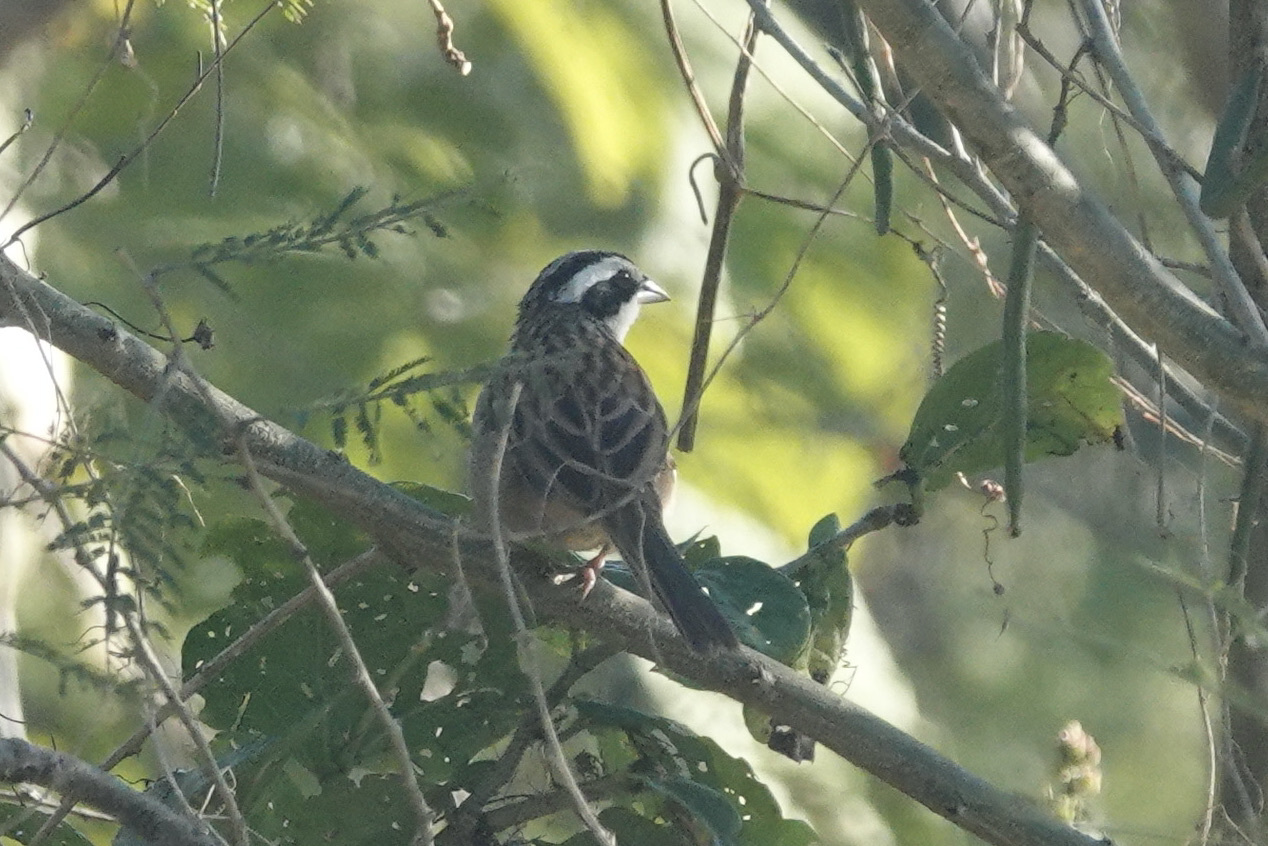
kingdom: Animalia
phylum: Chordata
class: Aves
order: Passeriformes
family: Passerellidae
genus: Peucaea
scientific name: Peucaea ruficauda
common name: Stripe-headed sparrow
